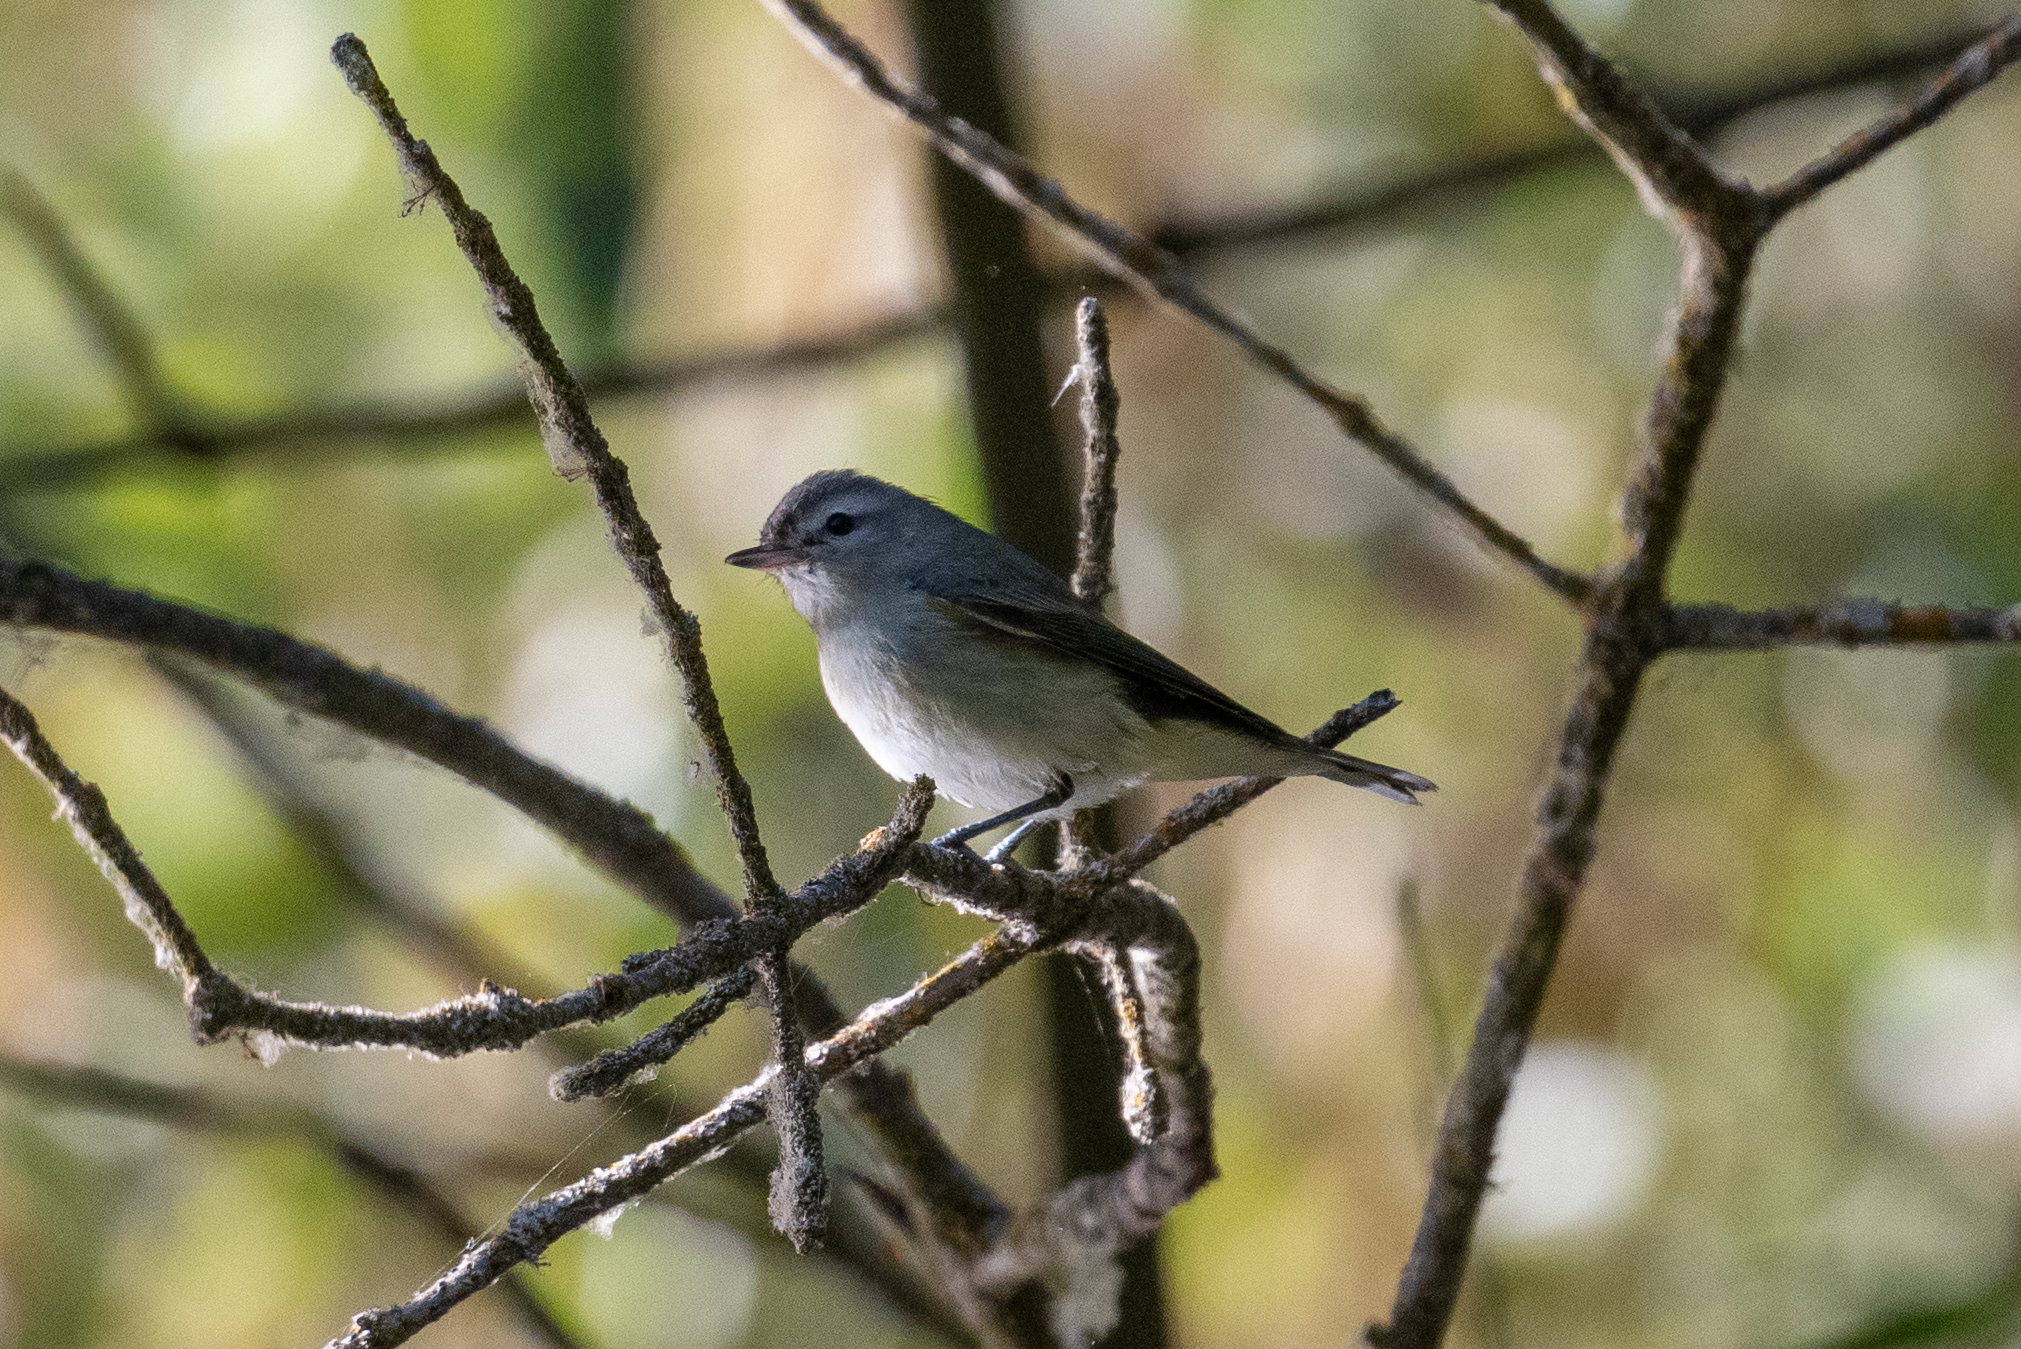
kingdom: Animalia
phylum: Chordata
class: Aves
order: Passeriformes
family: Vireonidae
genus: Vireo
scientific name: Vireo gilvus
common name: Warbling vireo
